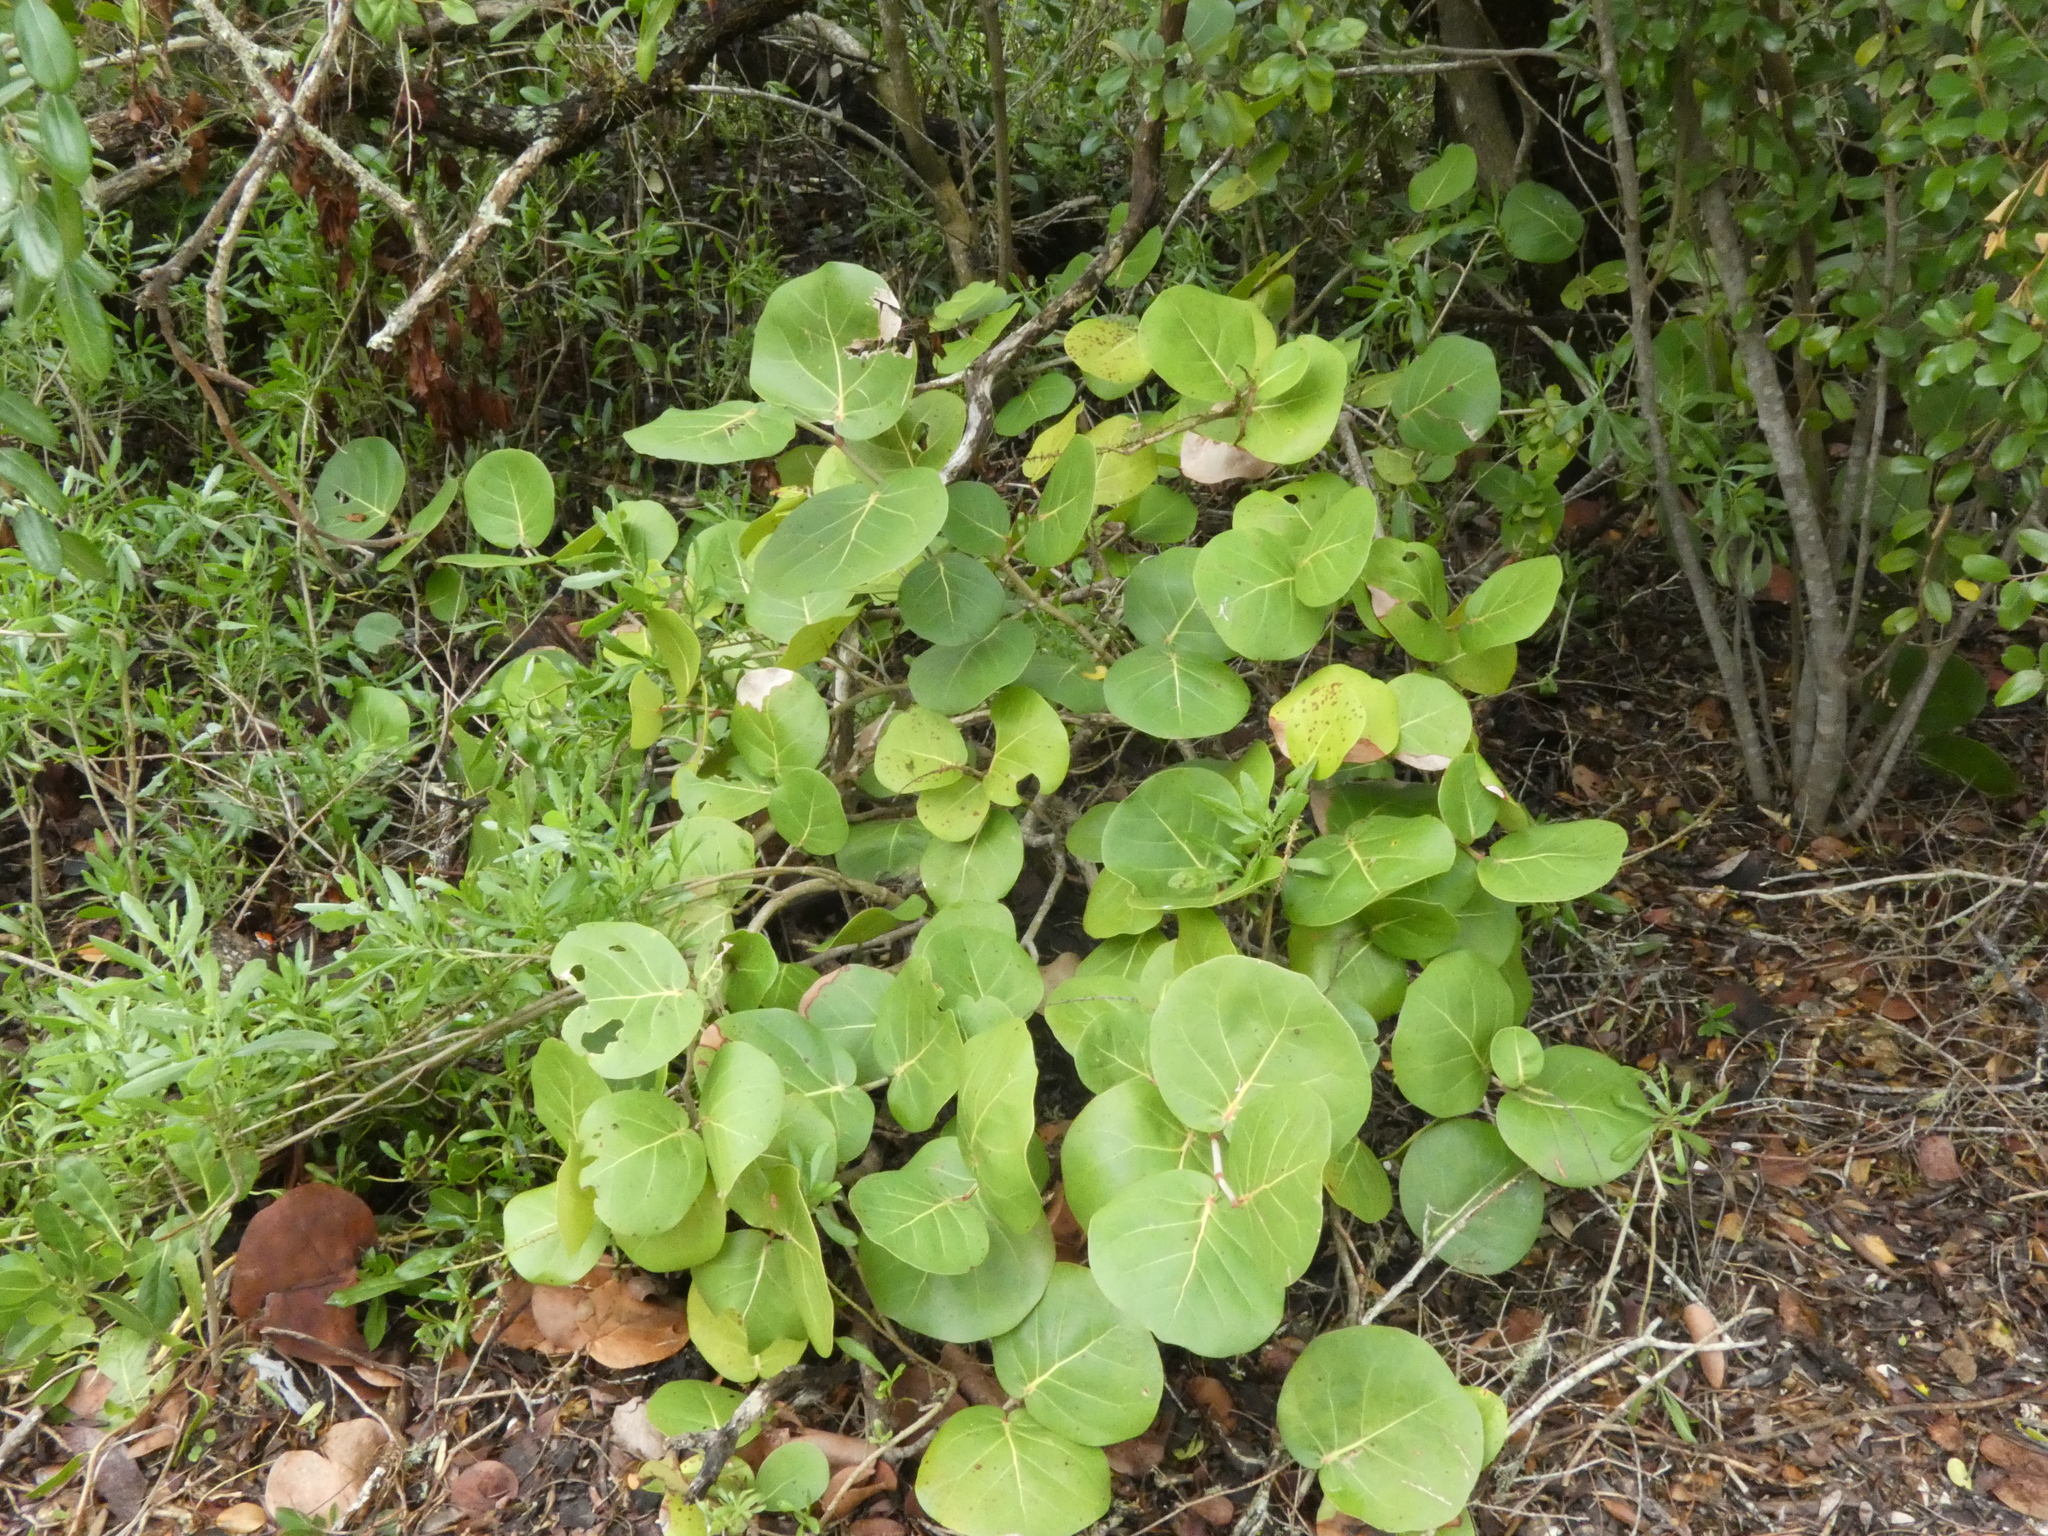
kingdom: Plantae
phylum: Tracheophyta
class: Magnoliopsida
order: Caryophyllales
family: Polygonaceae
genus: Coccoloba
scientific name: Coccoloba uvifera
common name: Seagrape
